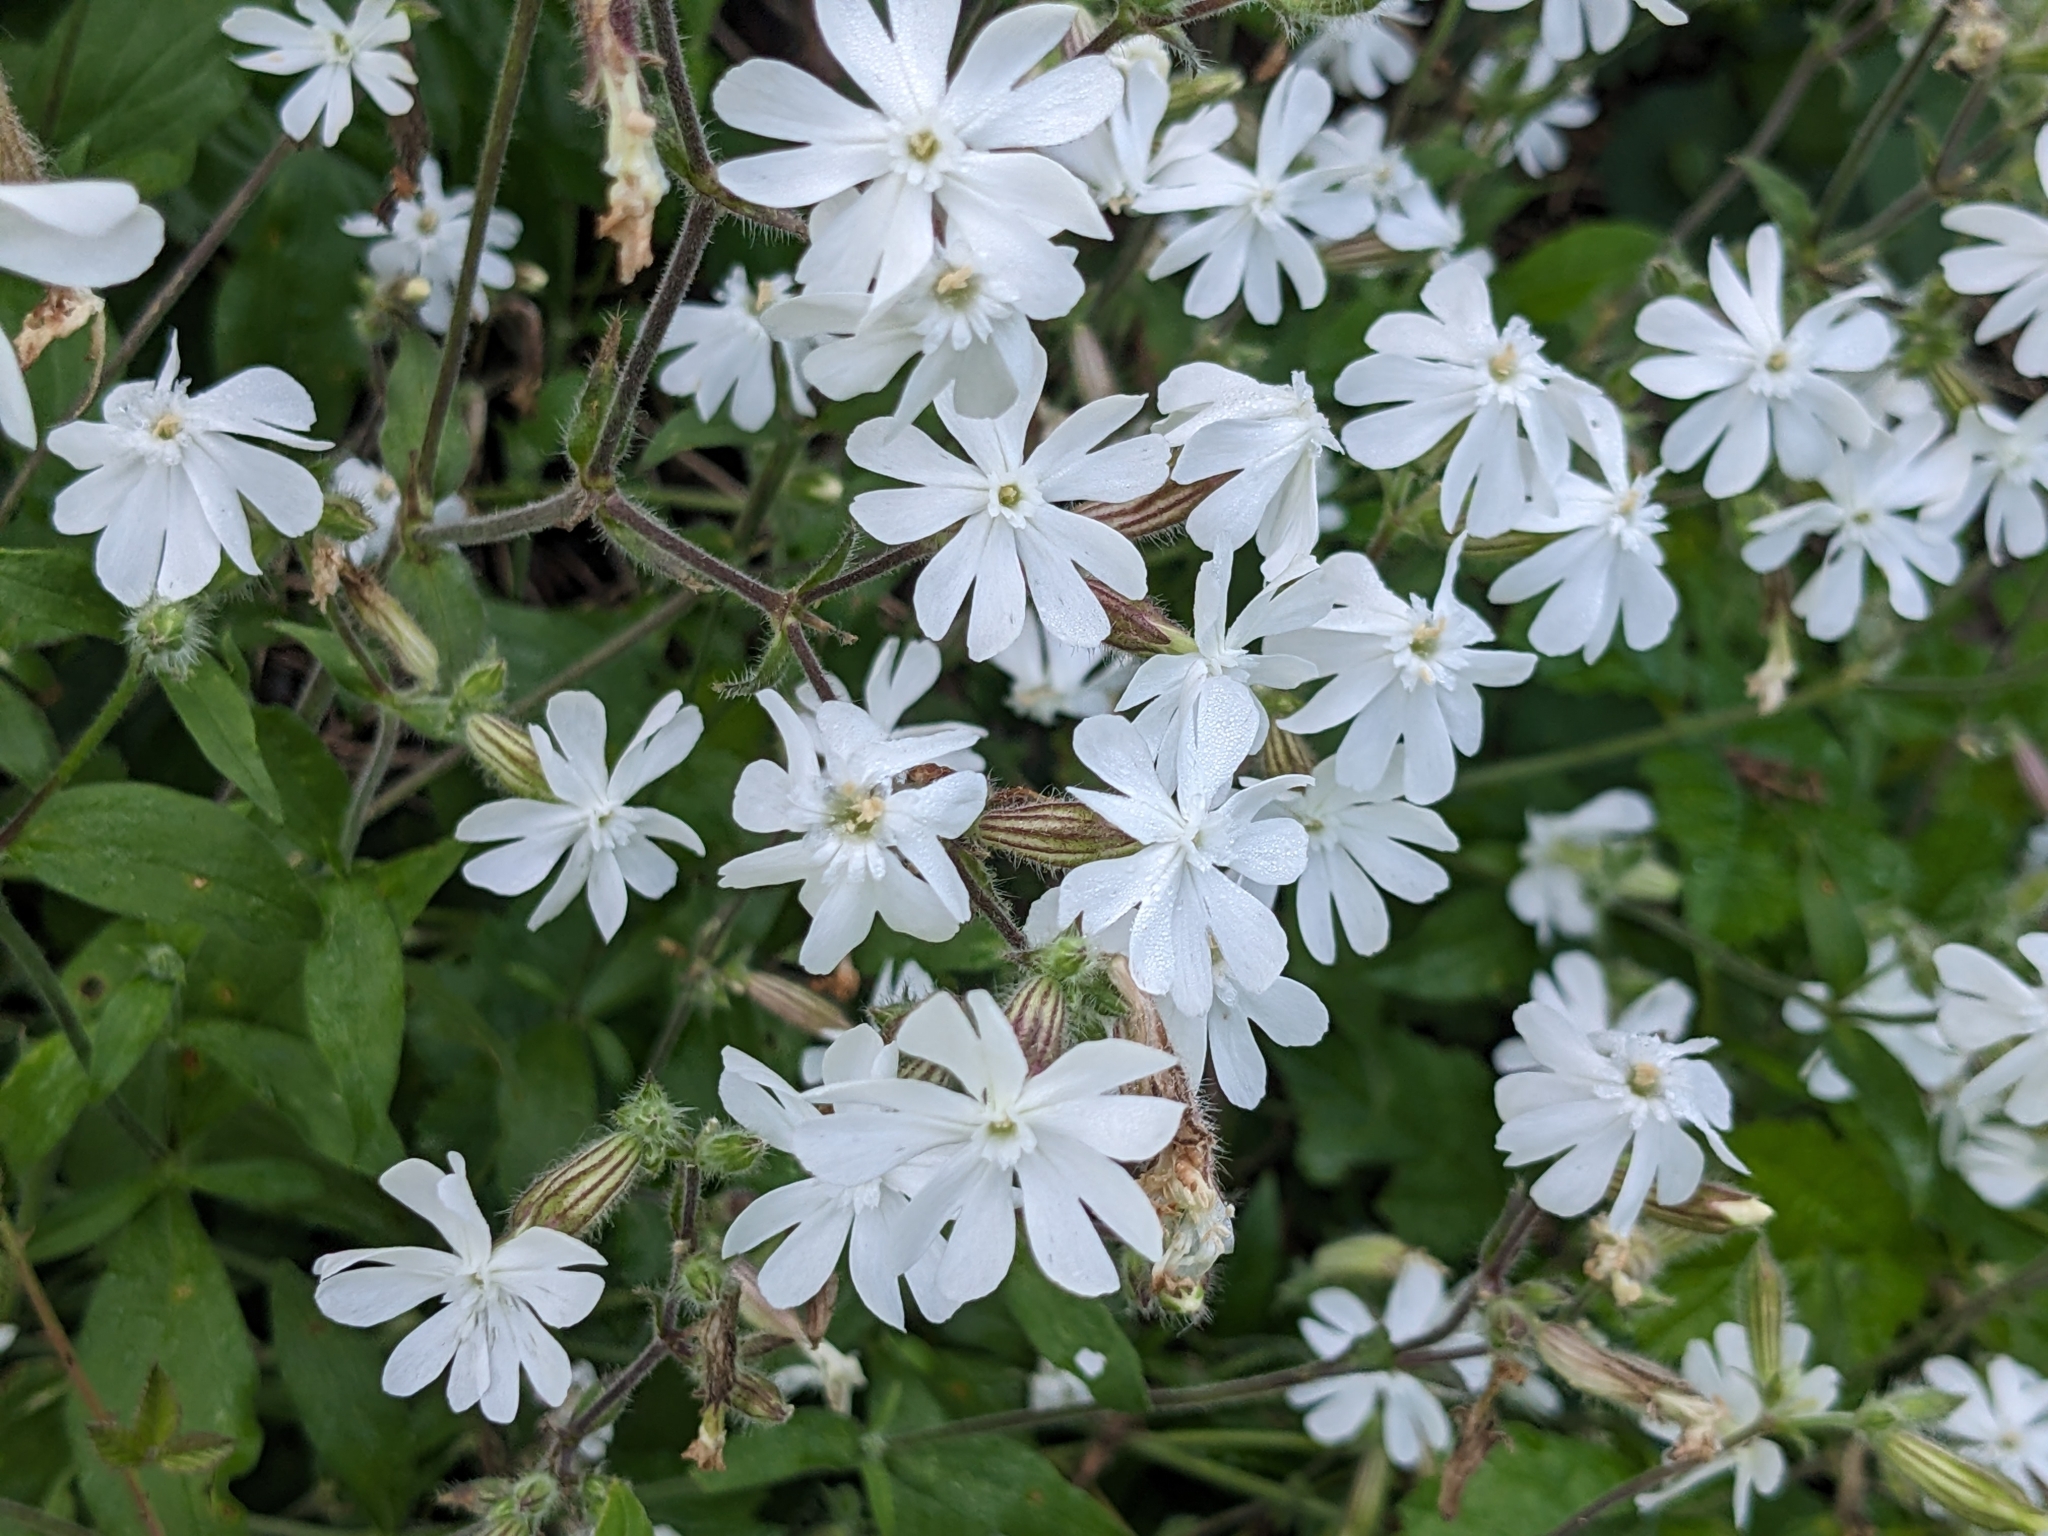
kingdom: Plantae
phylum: Tracheophyta
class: Magnoliopsida
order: Caryophyllales
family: Caryophyllaceae
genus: Silene
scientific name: Silene latifolia
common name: White campion
